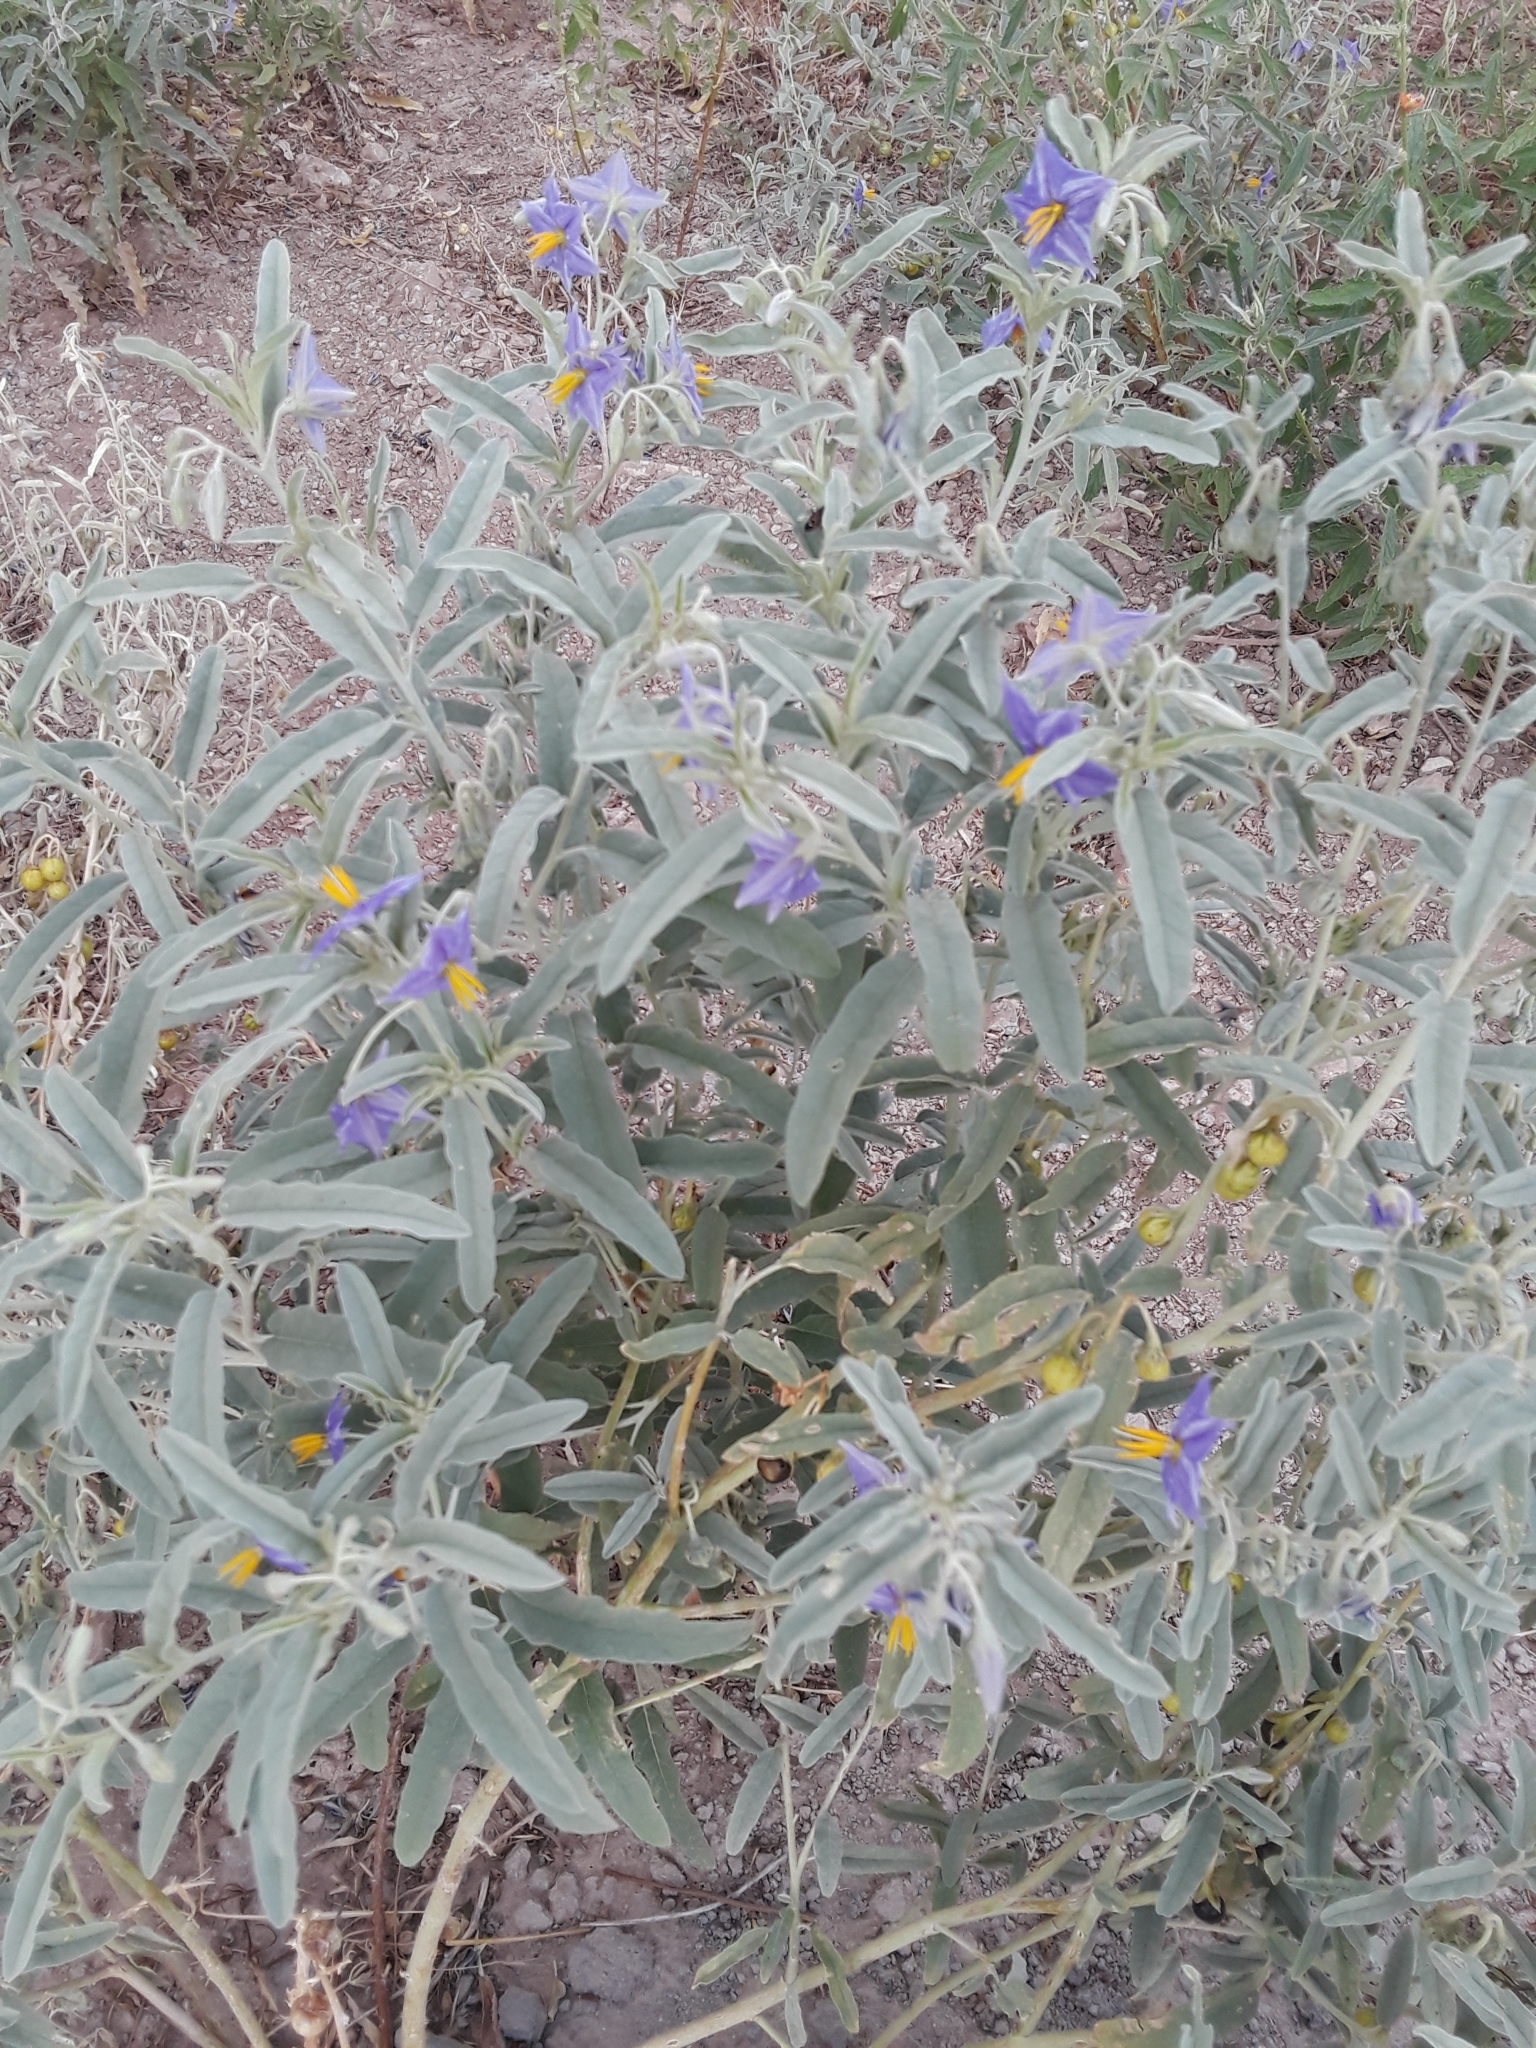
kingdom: Plantae
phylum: Tracheophyta
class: Magnoliopsida
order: Solanales
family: Solanaceae
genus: Solanum
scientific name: Solanum elaeagnifolium
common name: Silverleaf nightshade
